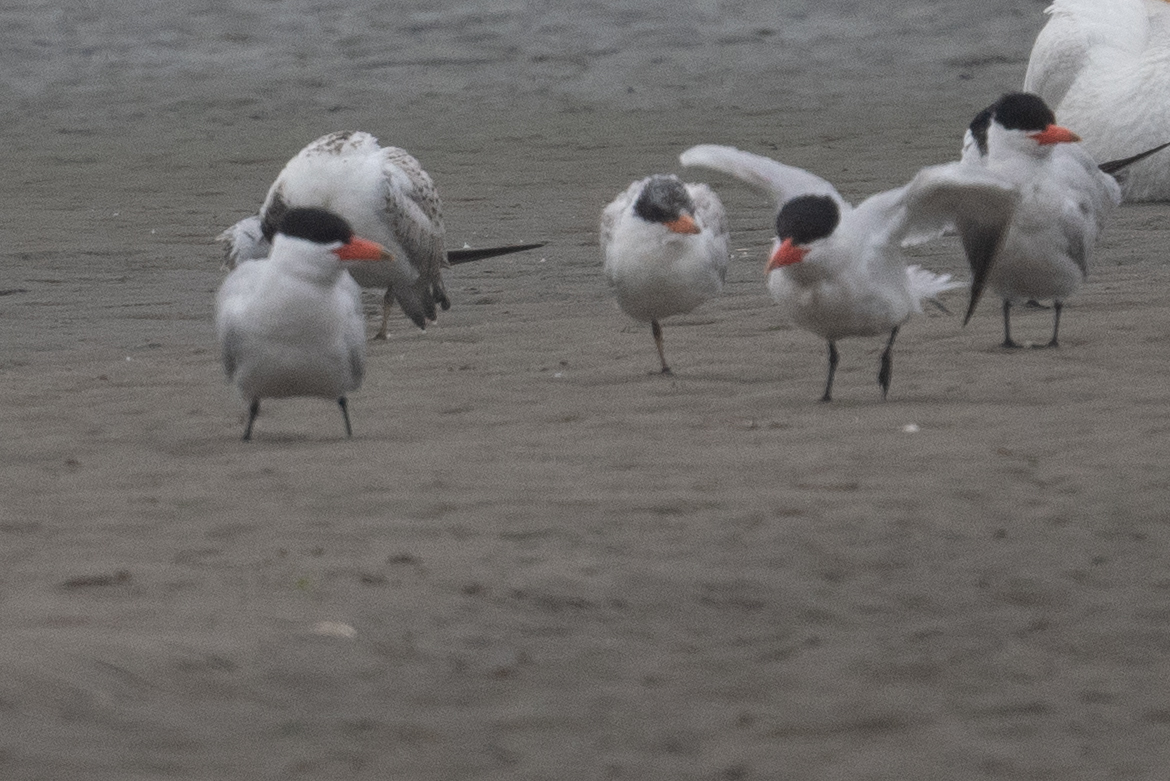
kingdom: Animalia
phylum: Chordata
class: Aves
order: Charadriiformes
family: Laridae
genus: Hydroprogne
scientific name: Hydroprogne caspia
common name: Caspian tern
